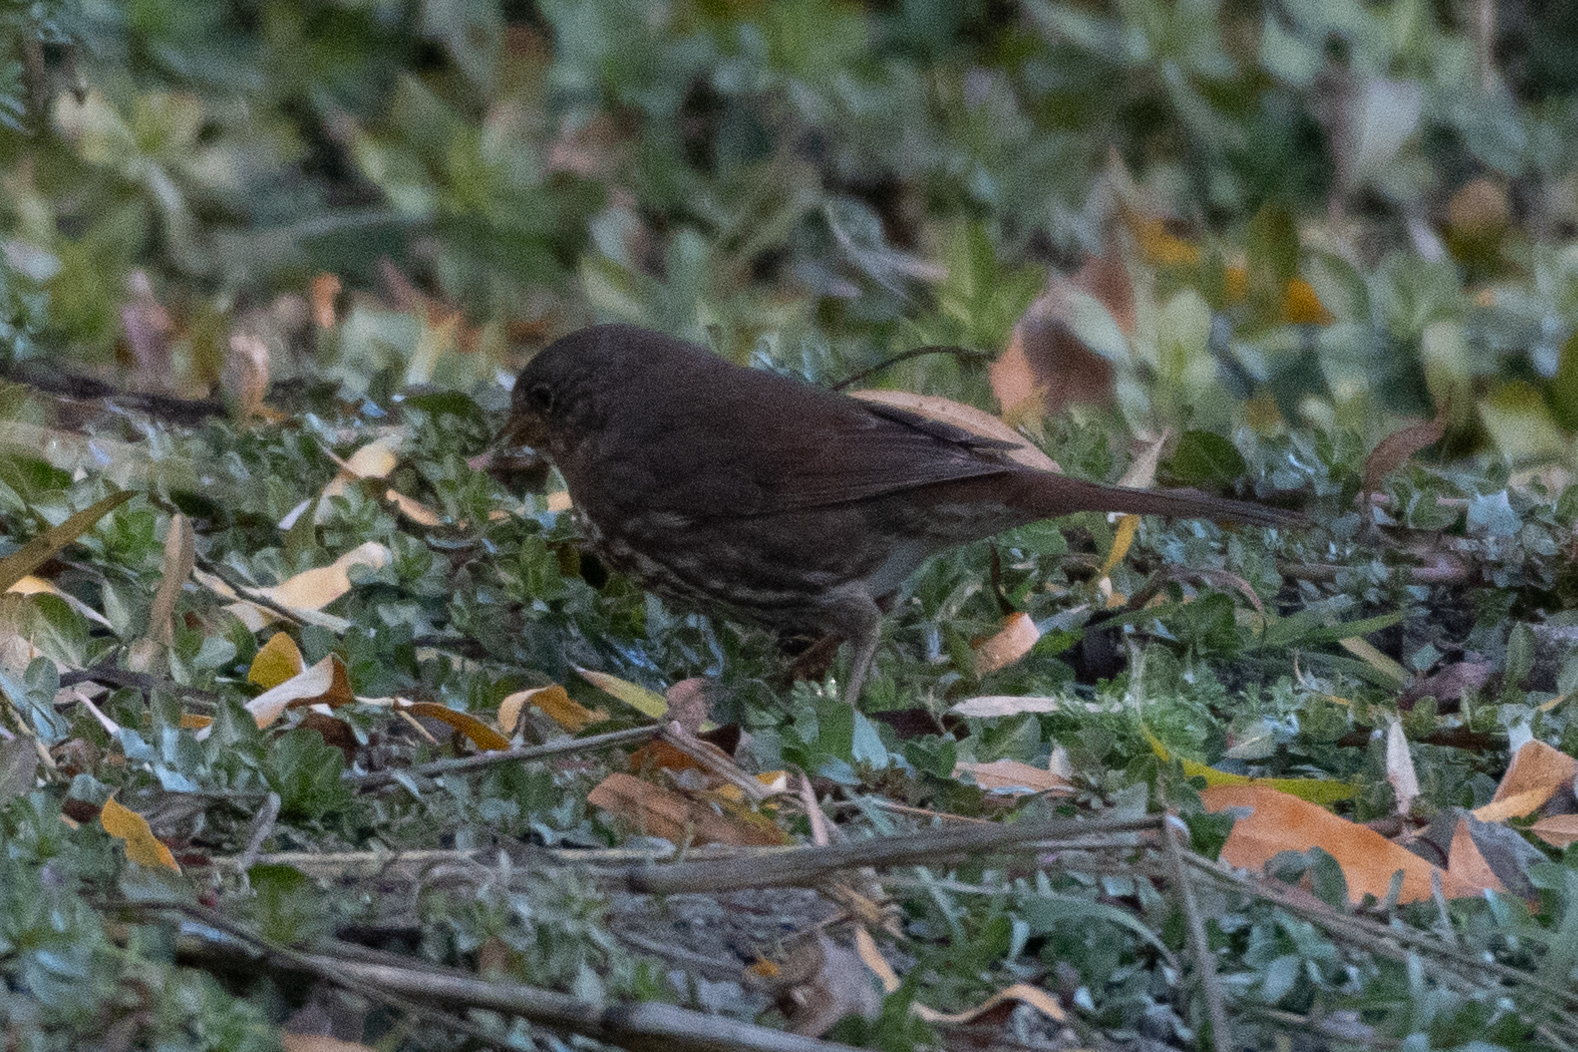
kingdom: Animalia
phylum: Chordata
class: Aves
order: Passeriformes
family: Passerellidae
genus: Passerella
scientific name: Passerella iliaca
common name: Fox sparrow
